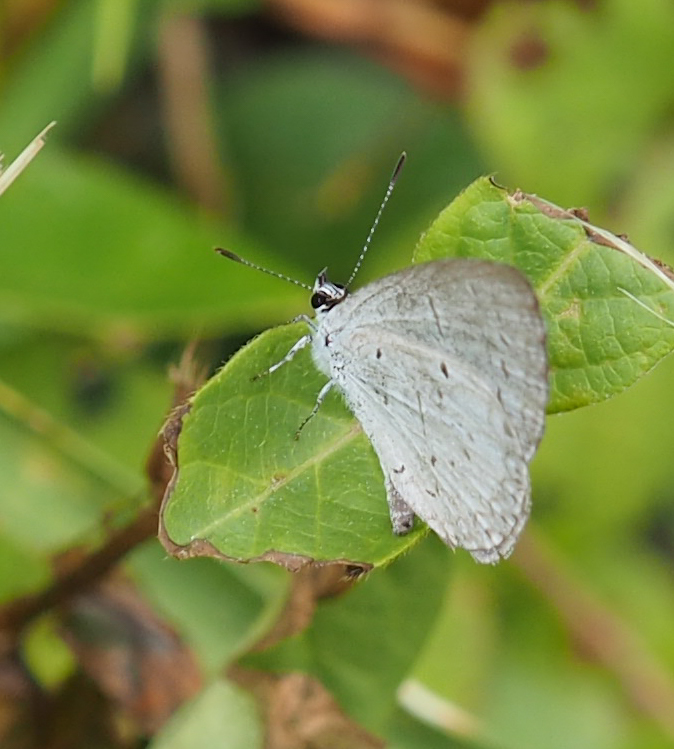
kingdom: Animalia
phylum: Arthropoda
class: Insecta
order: Lepidoptera
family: Lycaenidae
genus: Cyaniris
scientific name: Cyaniris neglecta
